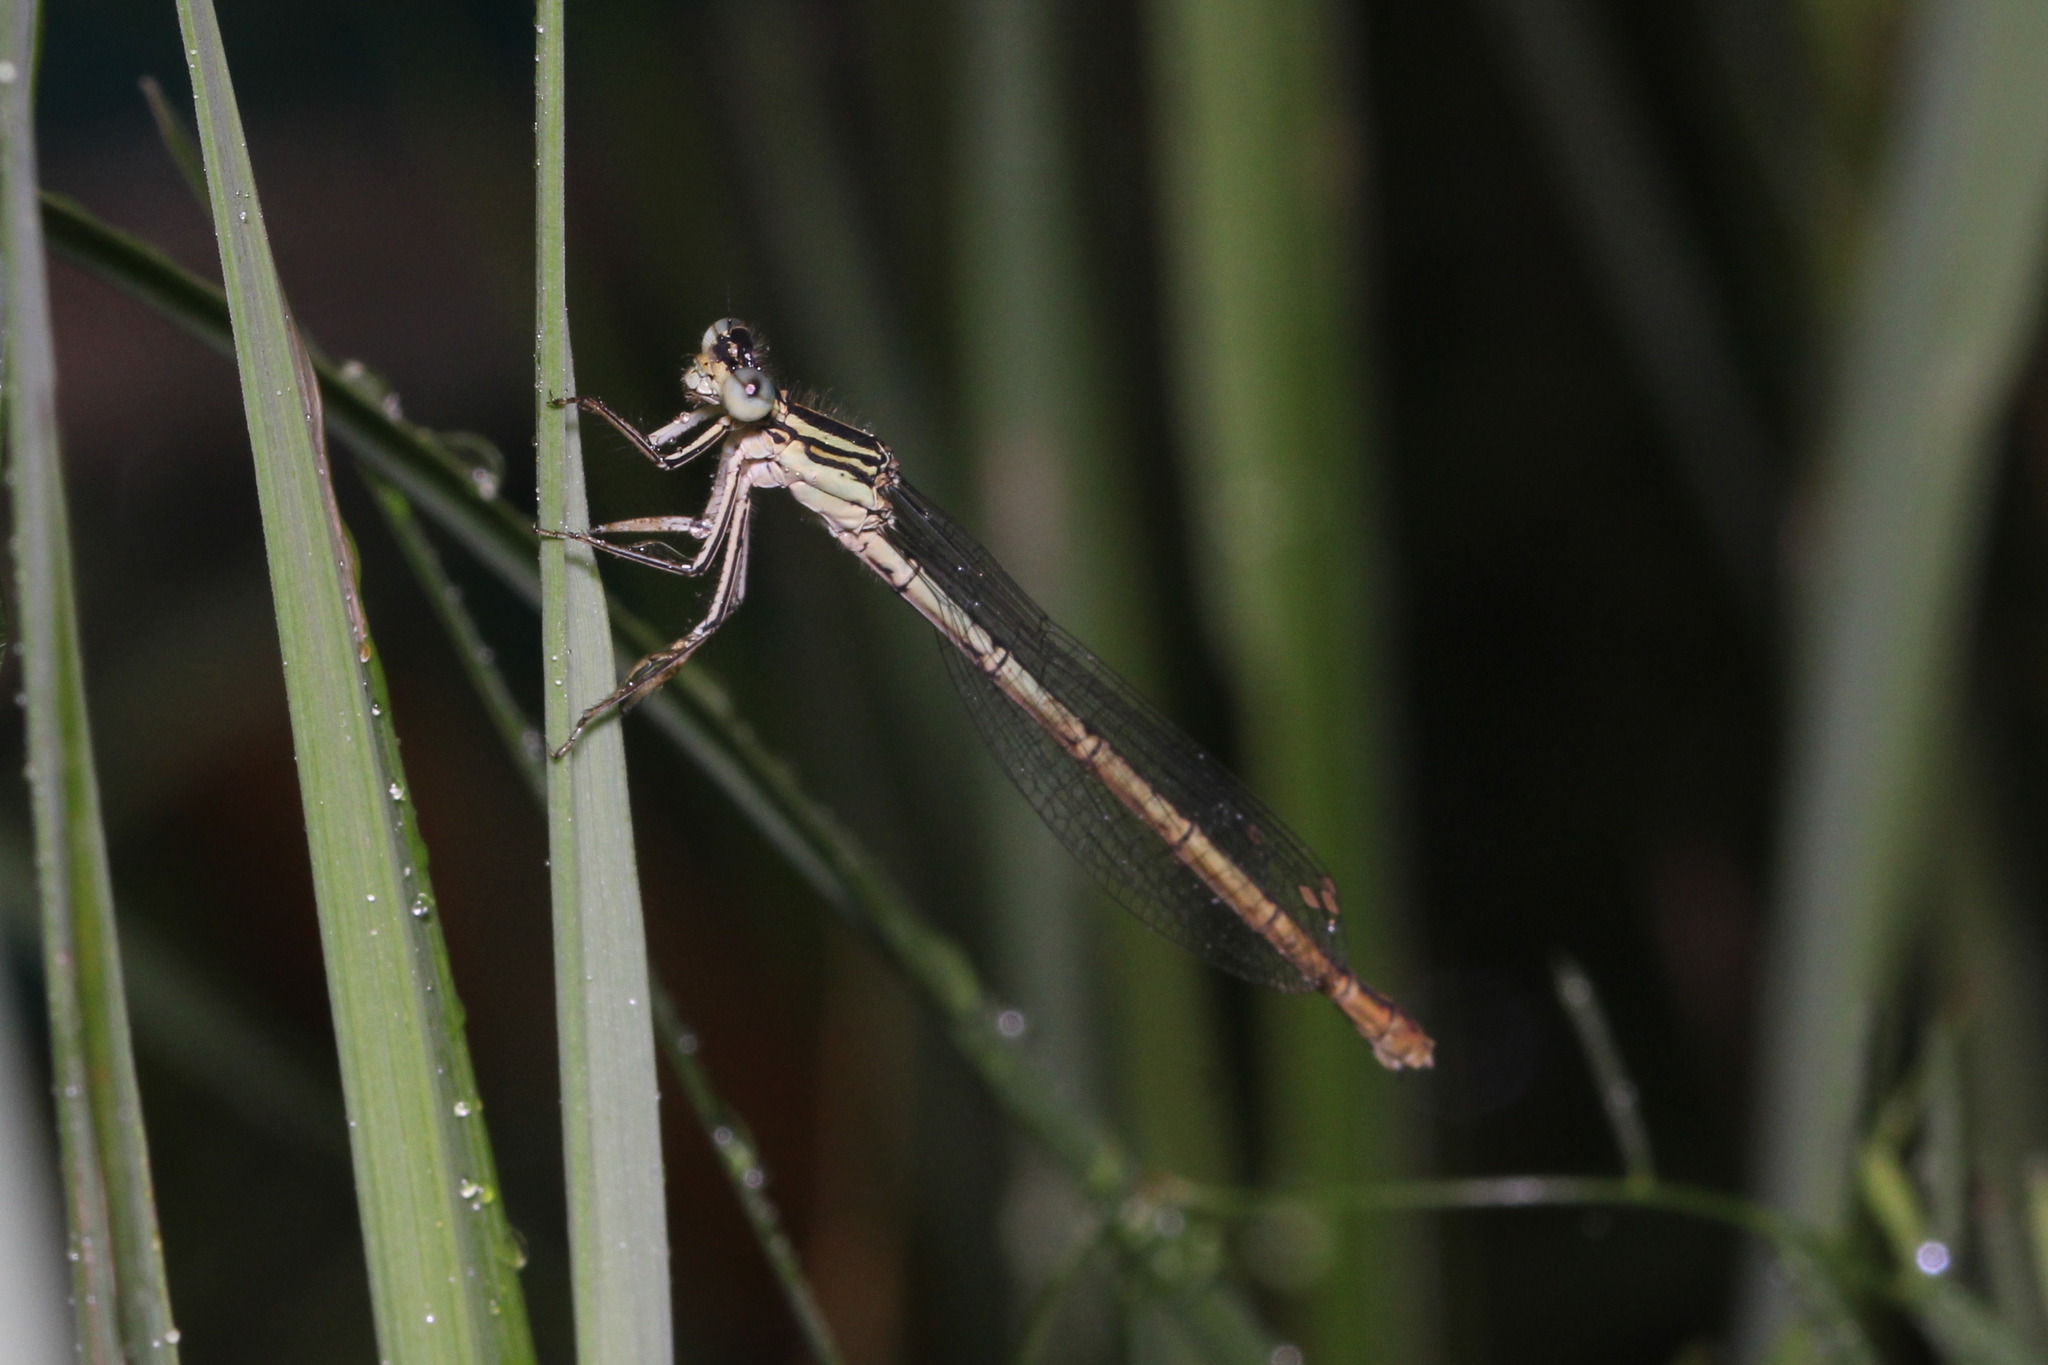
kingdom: Animalia
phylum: Arthropoda
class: Insecta
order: Odonata
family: Platycnemididae
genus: Platycnemis
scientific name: Platycnemis pennipes
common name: White-legged damselfly
